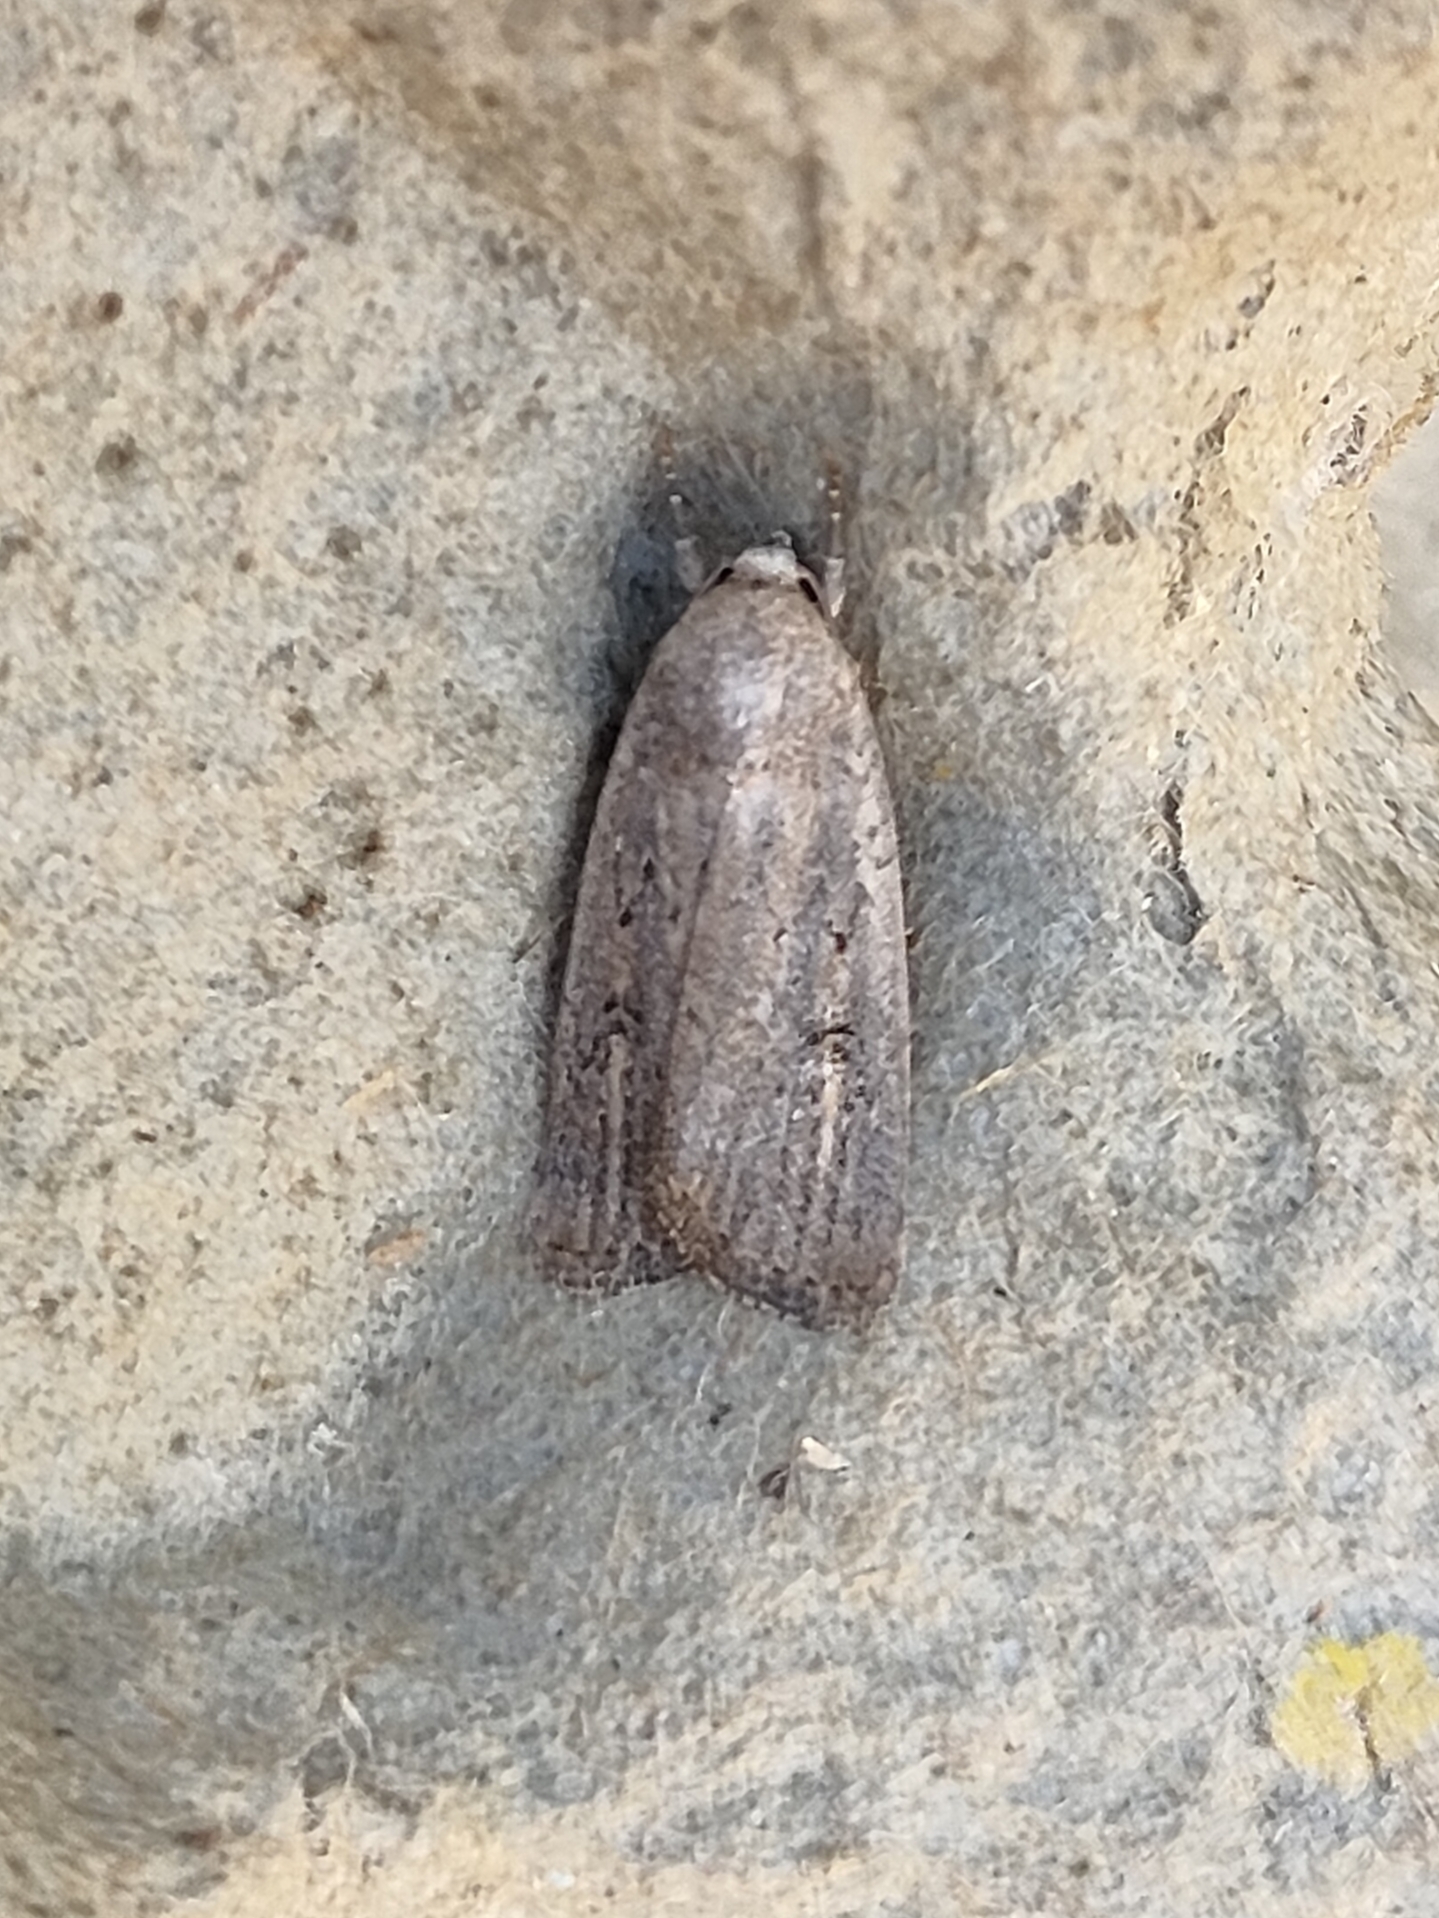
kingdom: Animalia
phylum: Arthropoda
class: Insecta
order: Lepidoptera
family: Noctuidae
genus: Athetis
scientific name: Athetis hospes
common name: Porter's rustic
